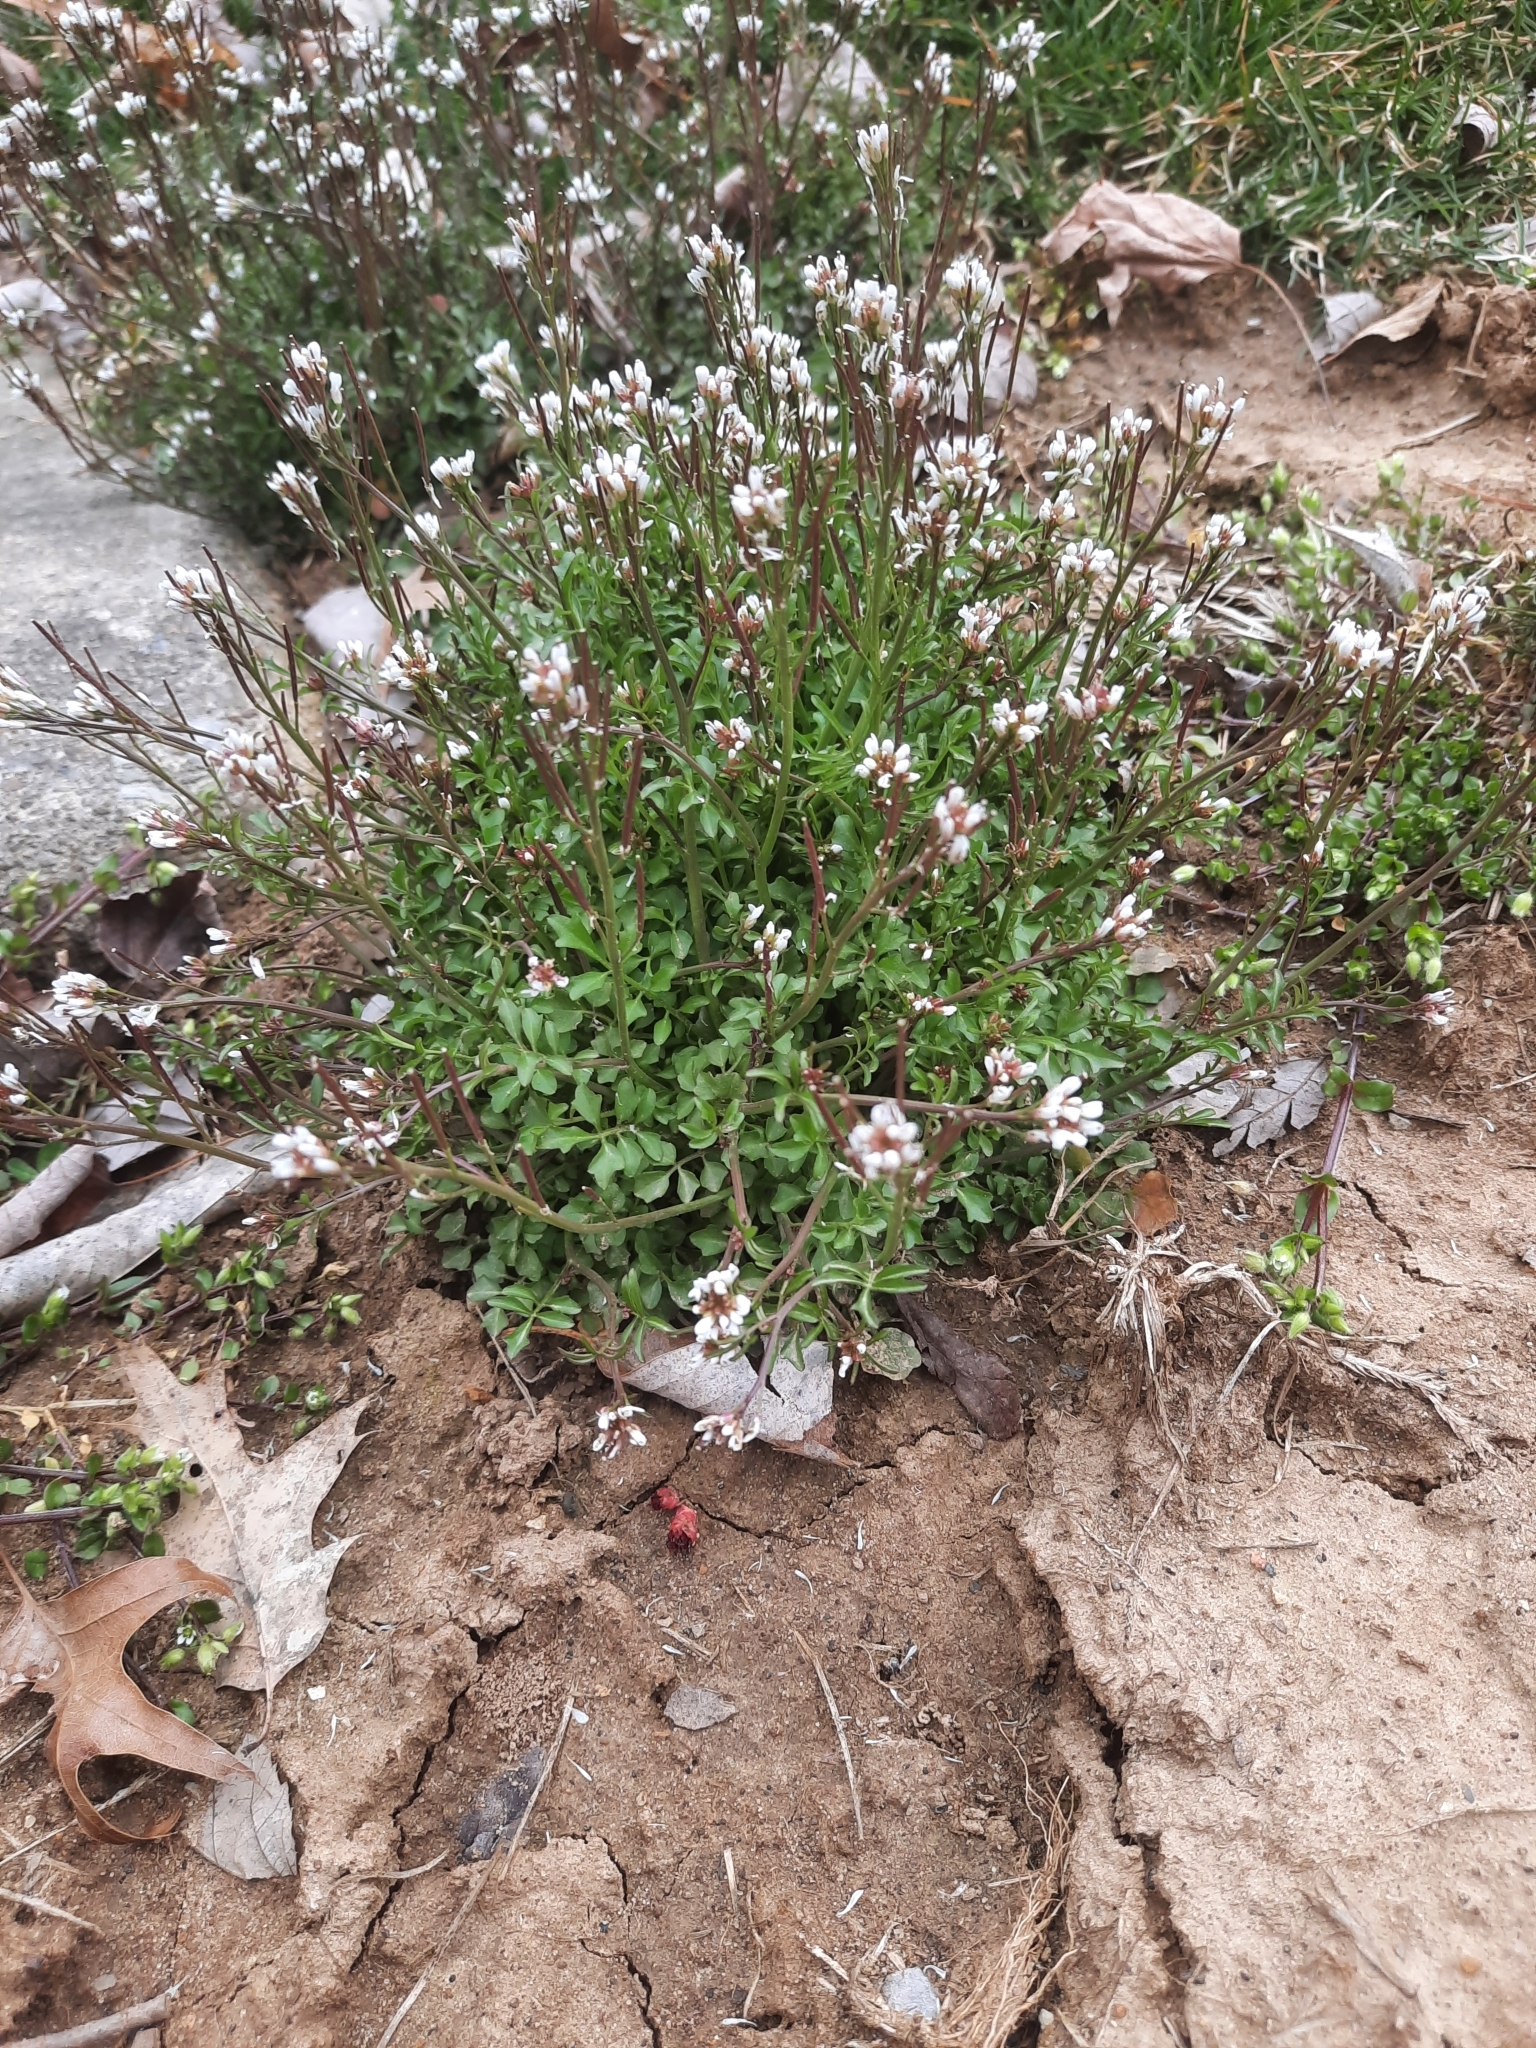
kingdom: Plantae
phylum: Tracheophyta
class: Magnoliopsida
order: Brassicales
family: Brassicaceae
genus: Cardamine
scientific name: Cardamine hirsuta
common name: Hairy bittercress
